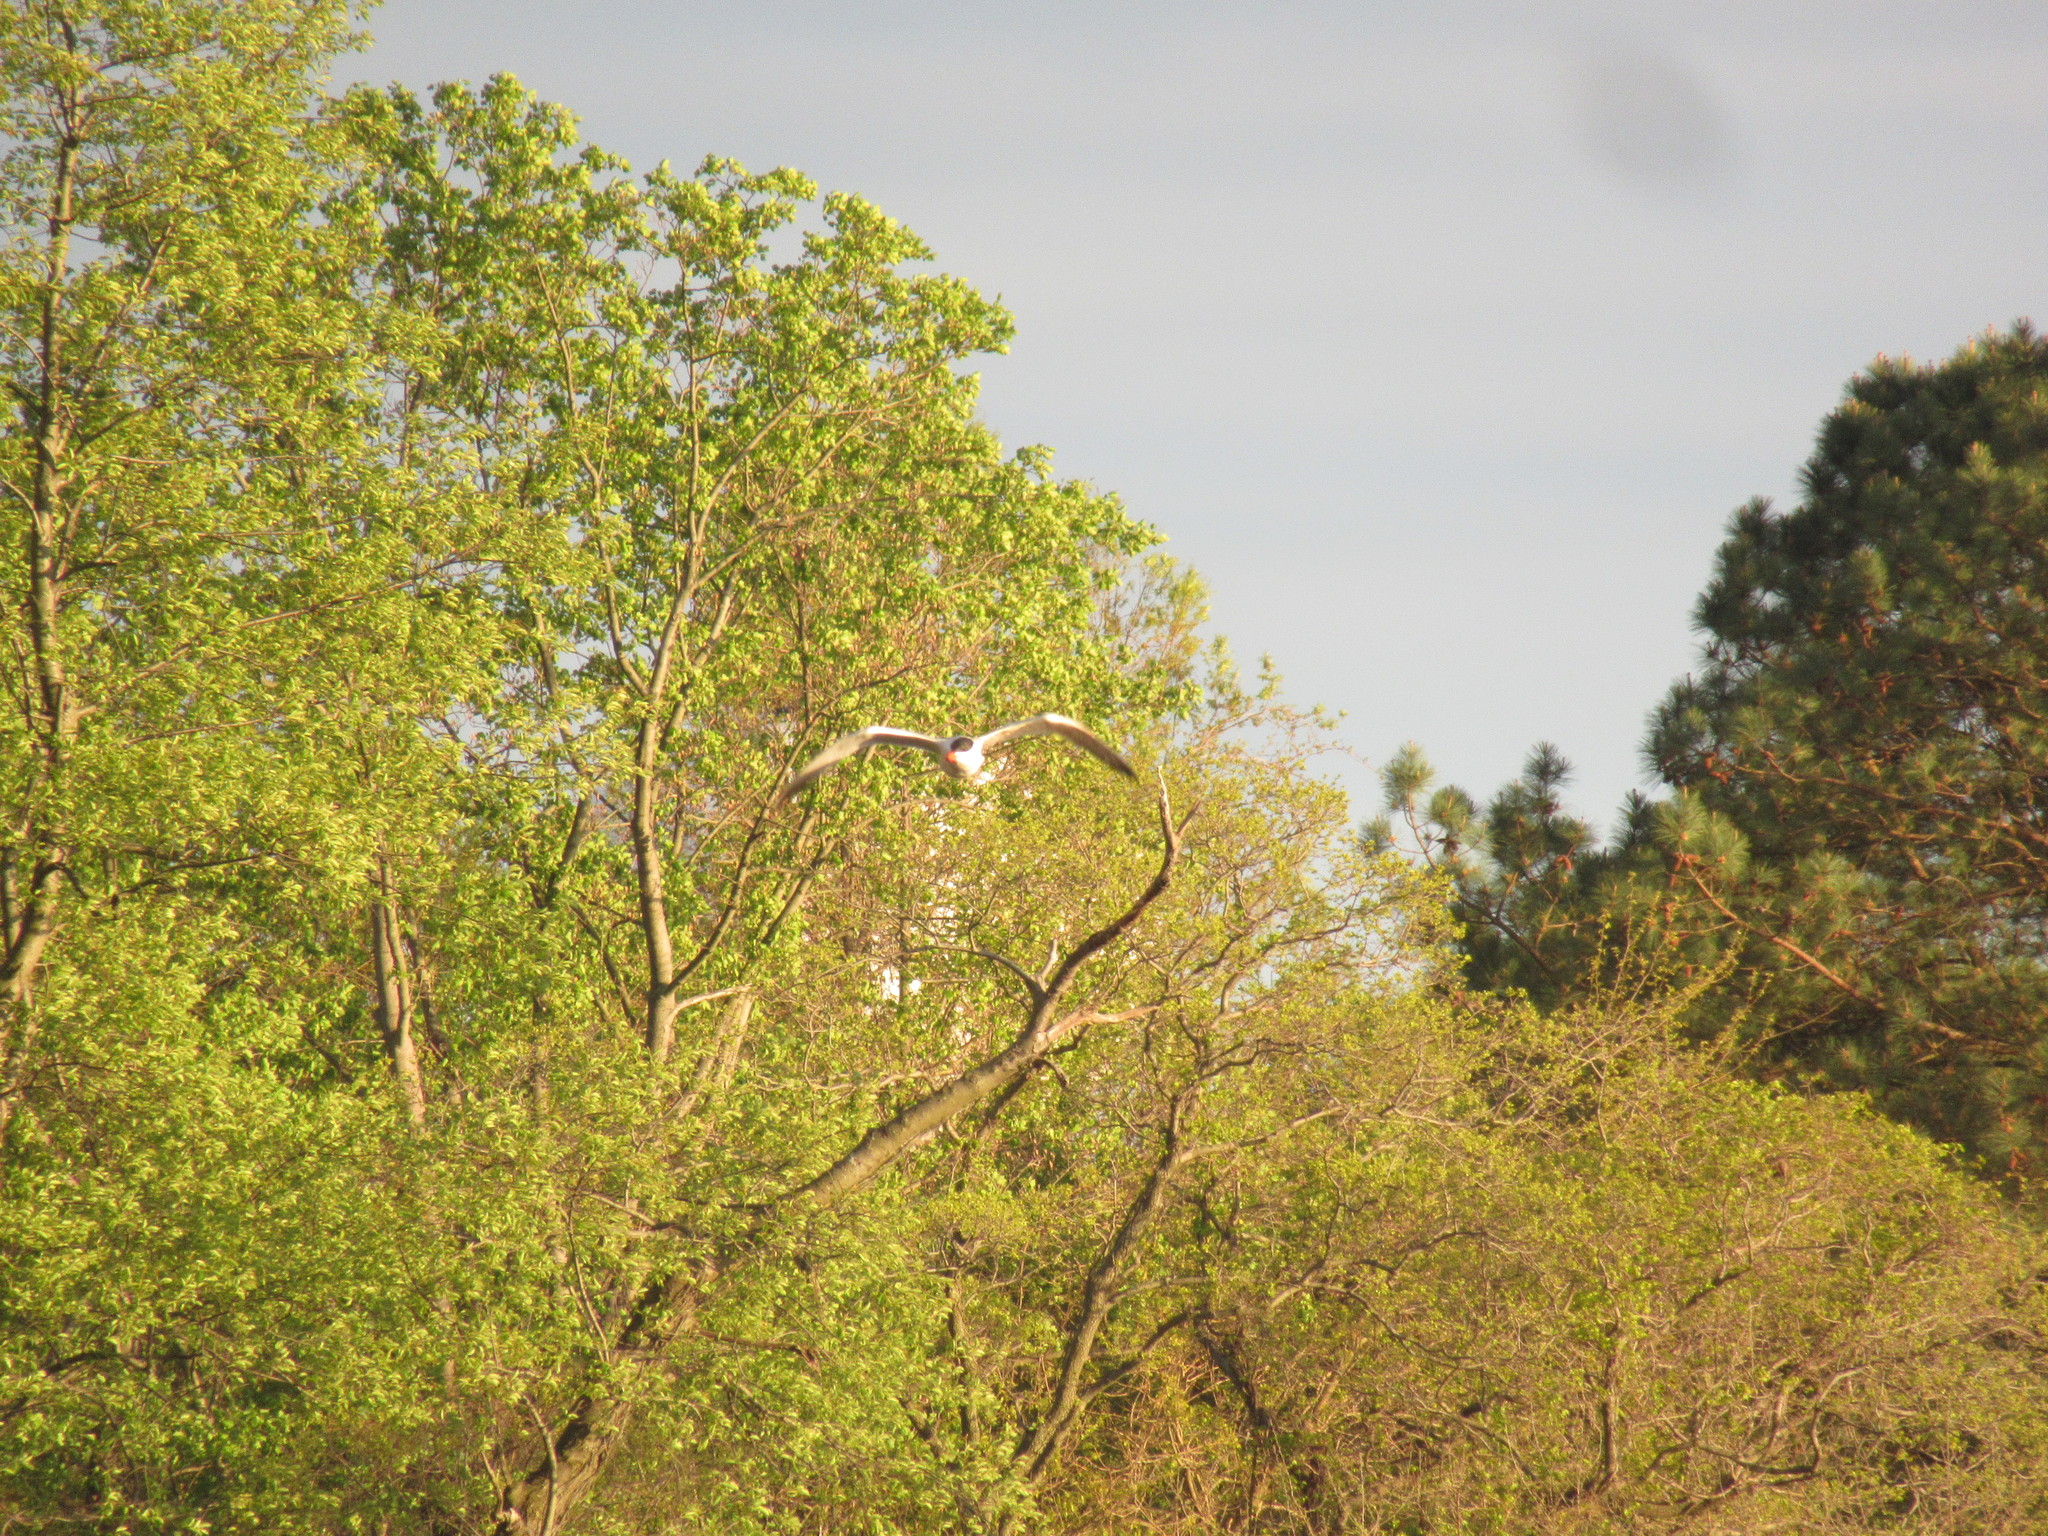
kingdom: Animalia
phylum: Chordata
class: Aves
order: Charadriiformes
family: Laridae
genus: Hydroprogne
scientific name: Hydroprogne caspia
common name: Caspian tern
